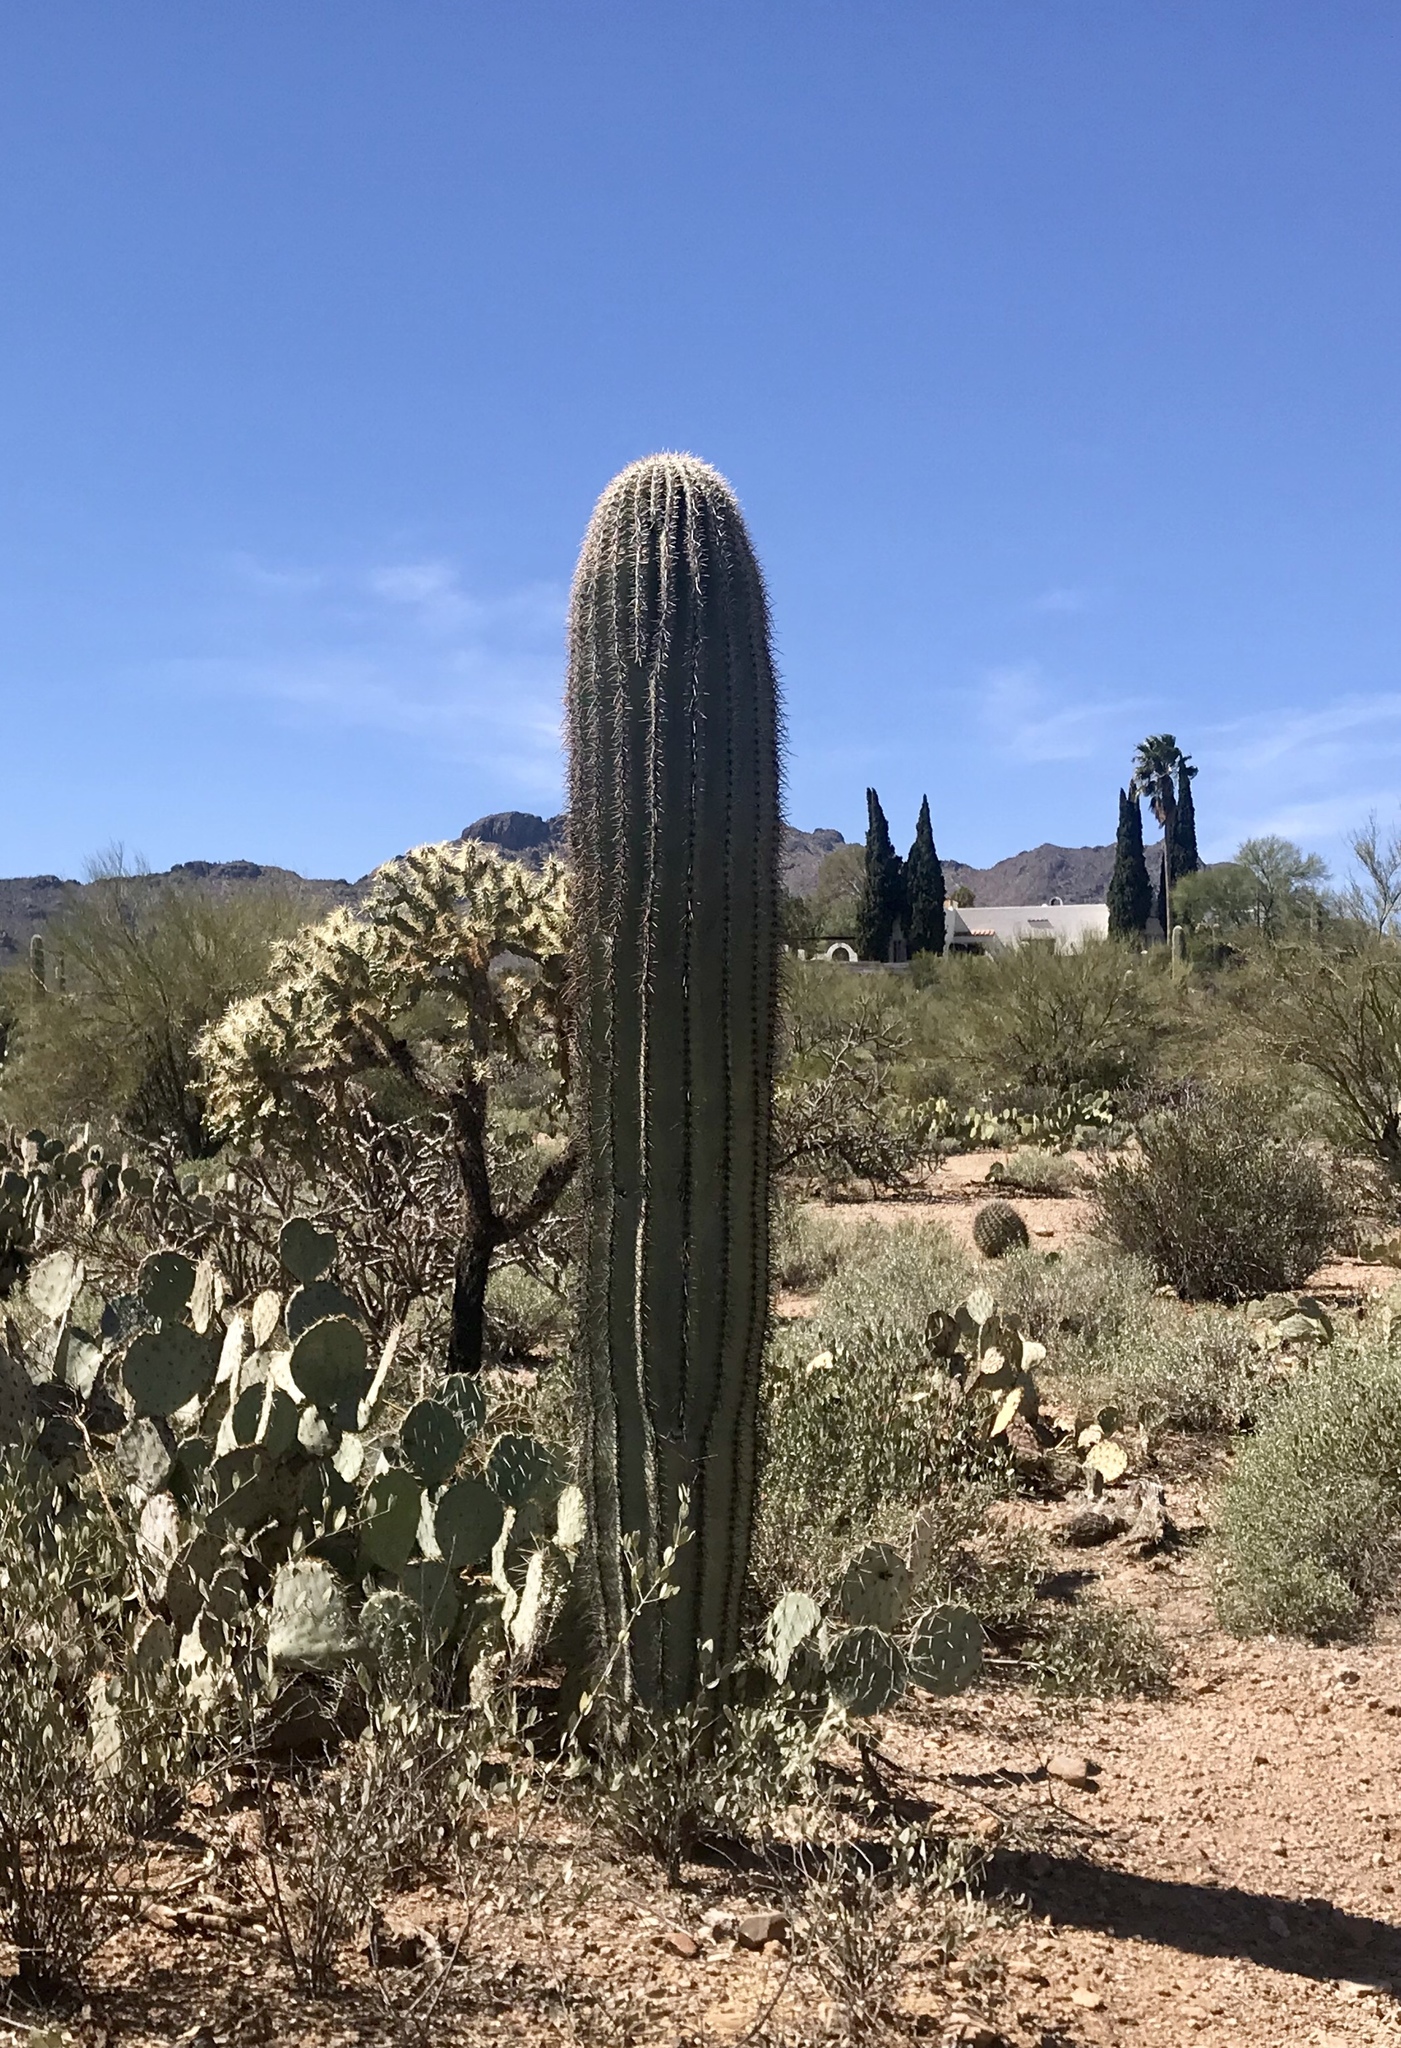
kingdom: Plantae
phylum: Tracheophyta
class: Magnoliopsida
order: Caryophyllales
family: Cactaceae
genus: Carnegiea
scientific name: Carnegiea gigantea
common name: Saguaro
